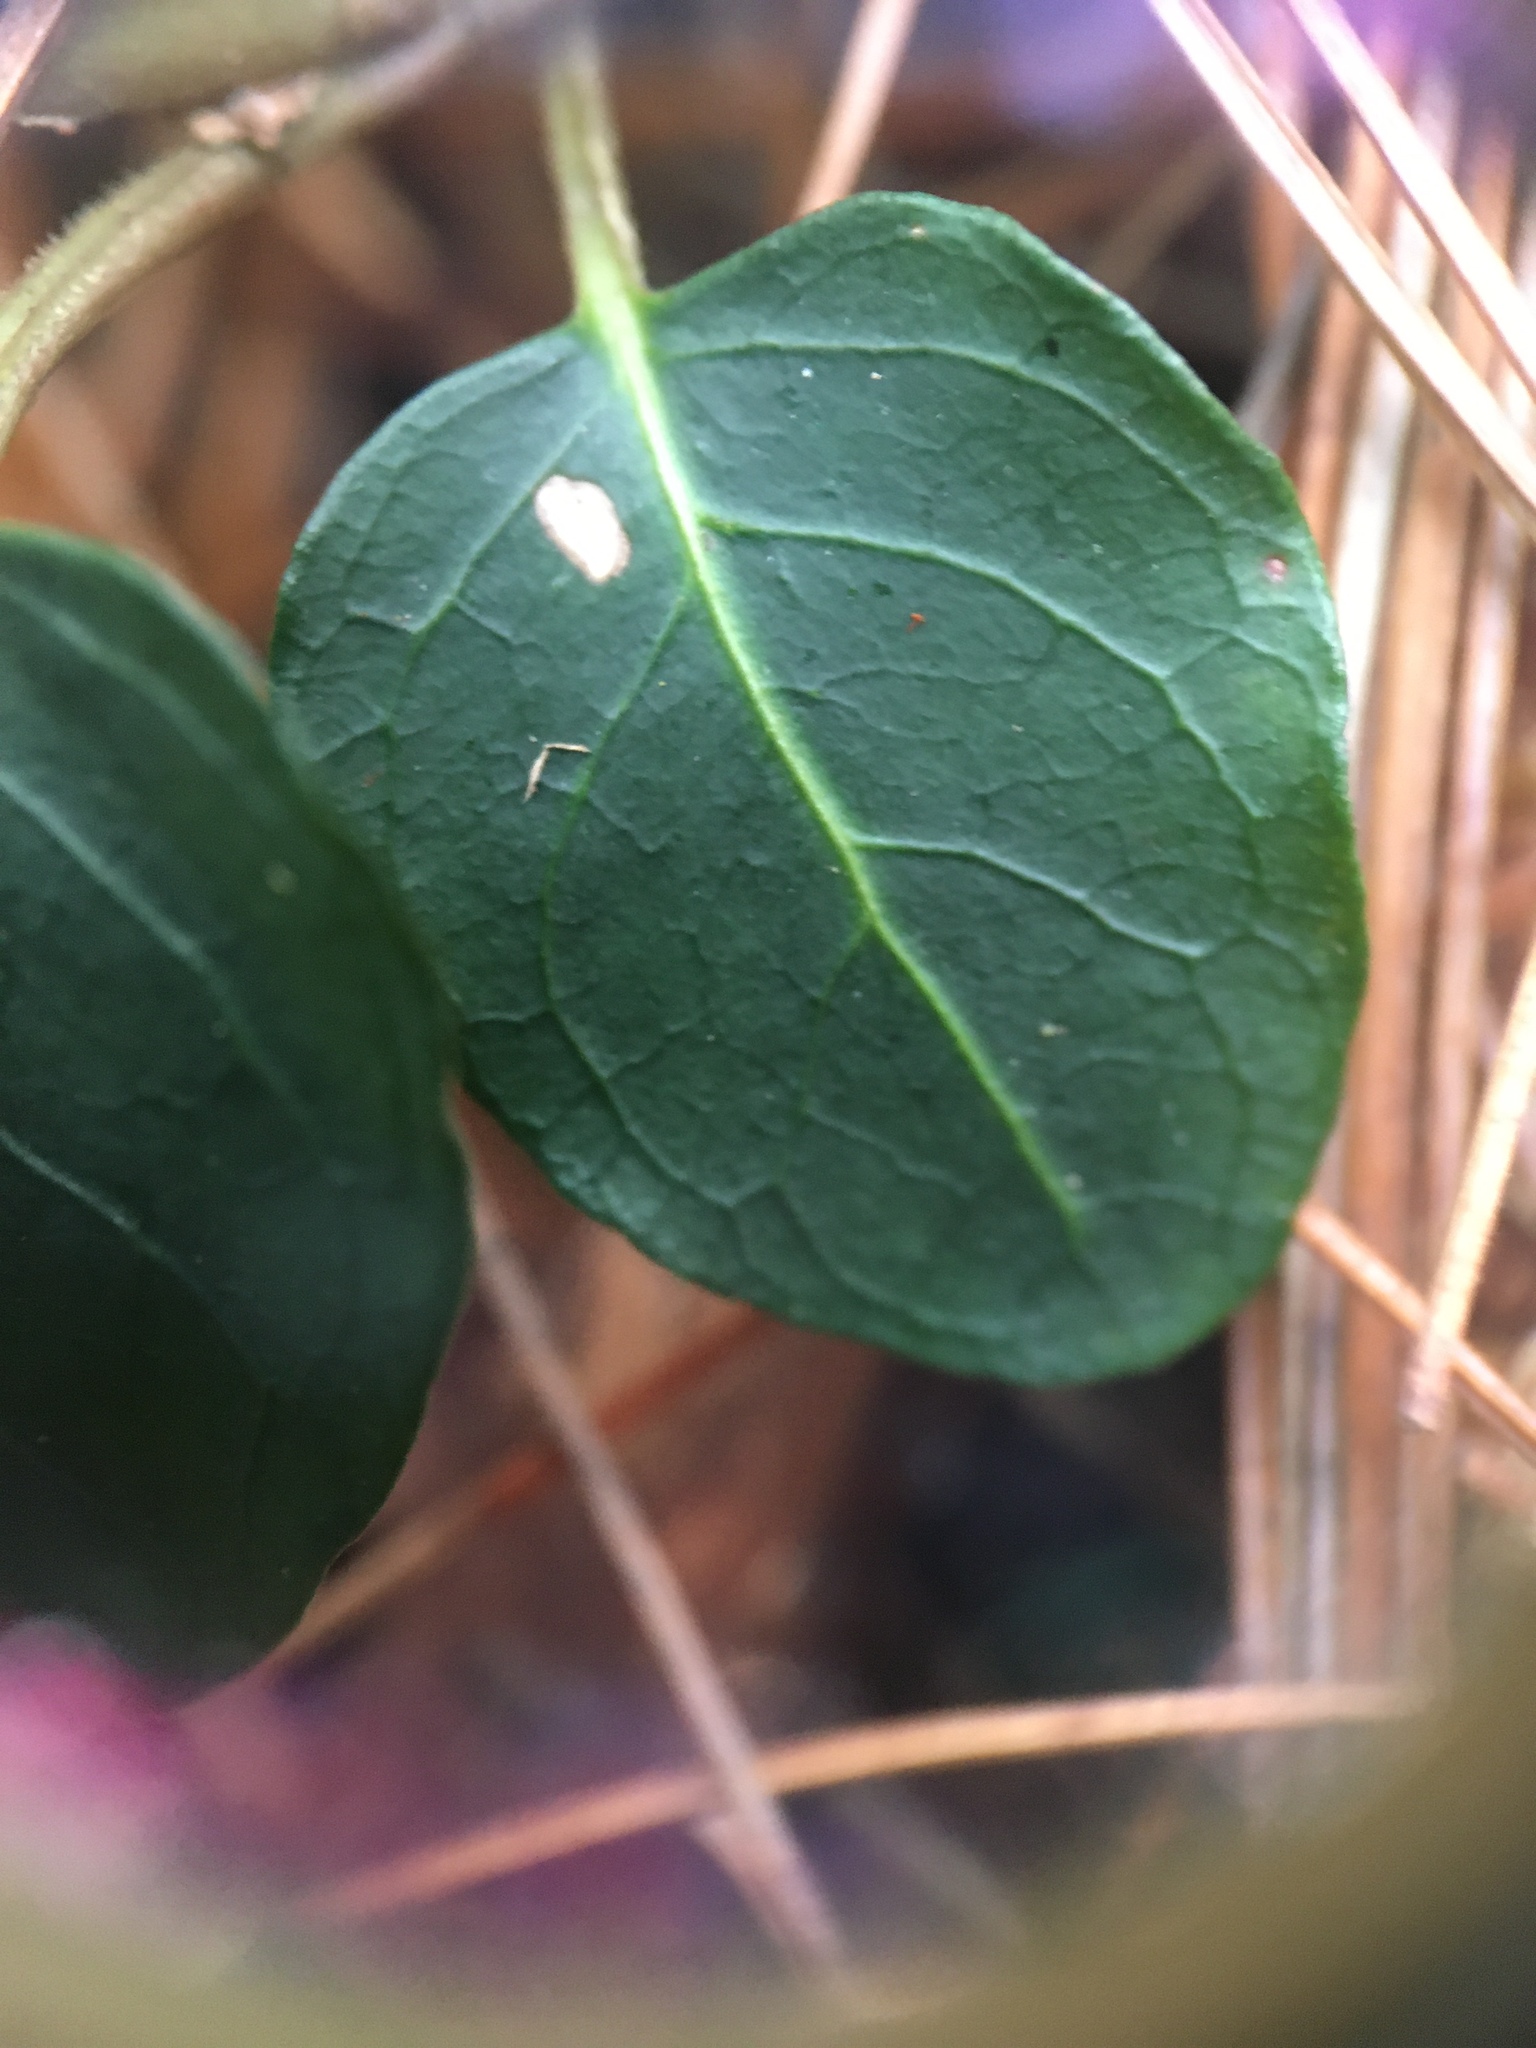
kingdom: Plantae
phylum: Tracheophyta
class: Magnoliopsida
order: Gentianales
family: Rubiaceae
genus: Mitchella
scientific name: Mitchella repens
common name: Partridge-berry
